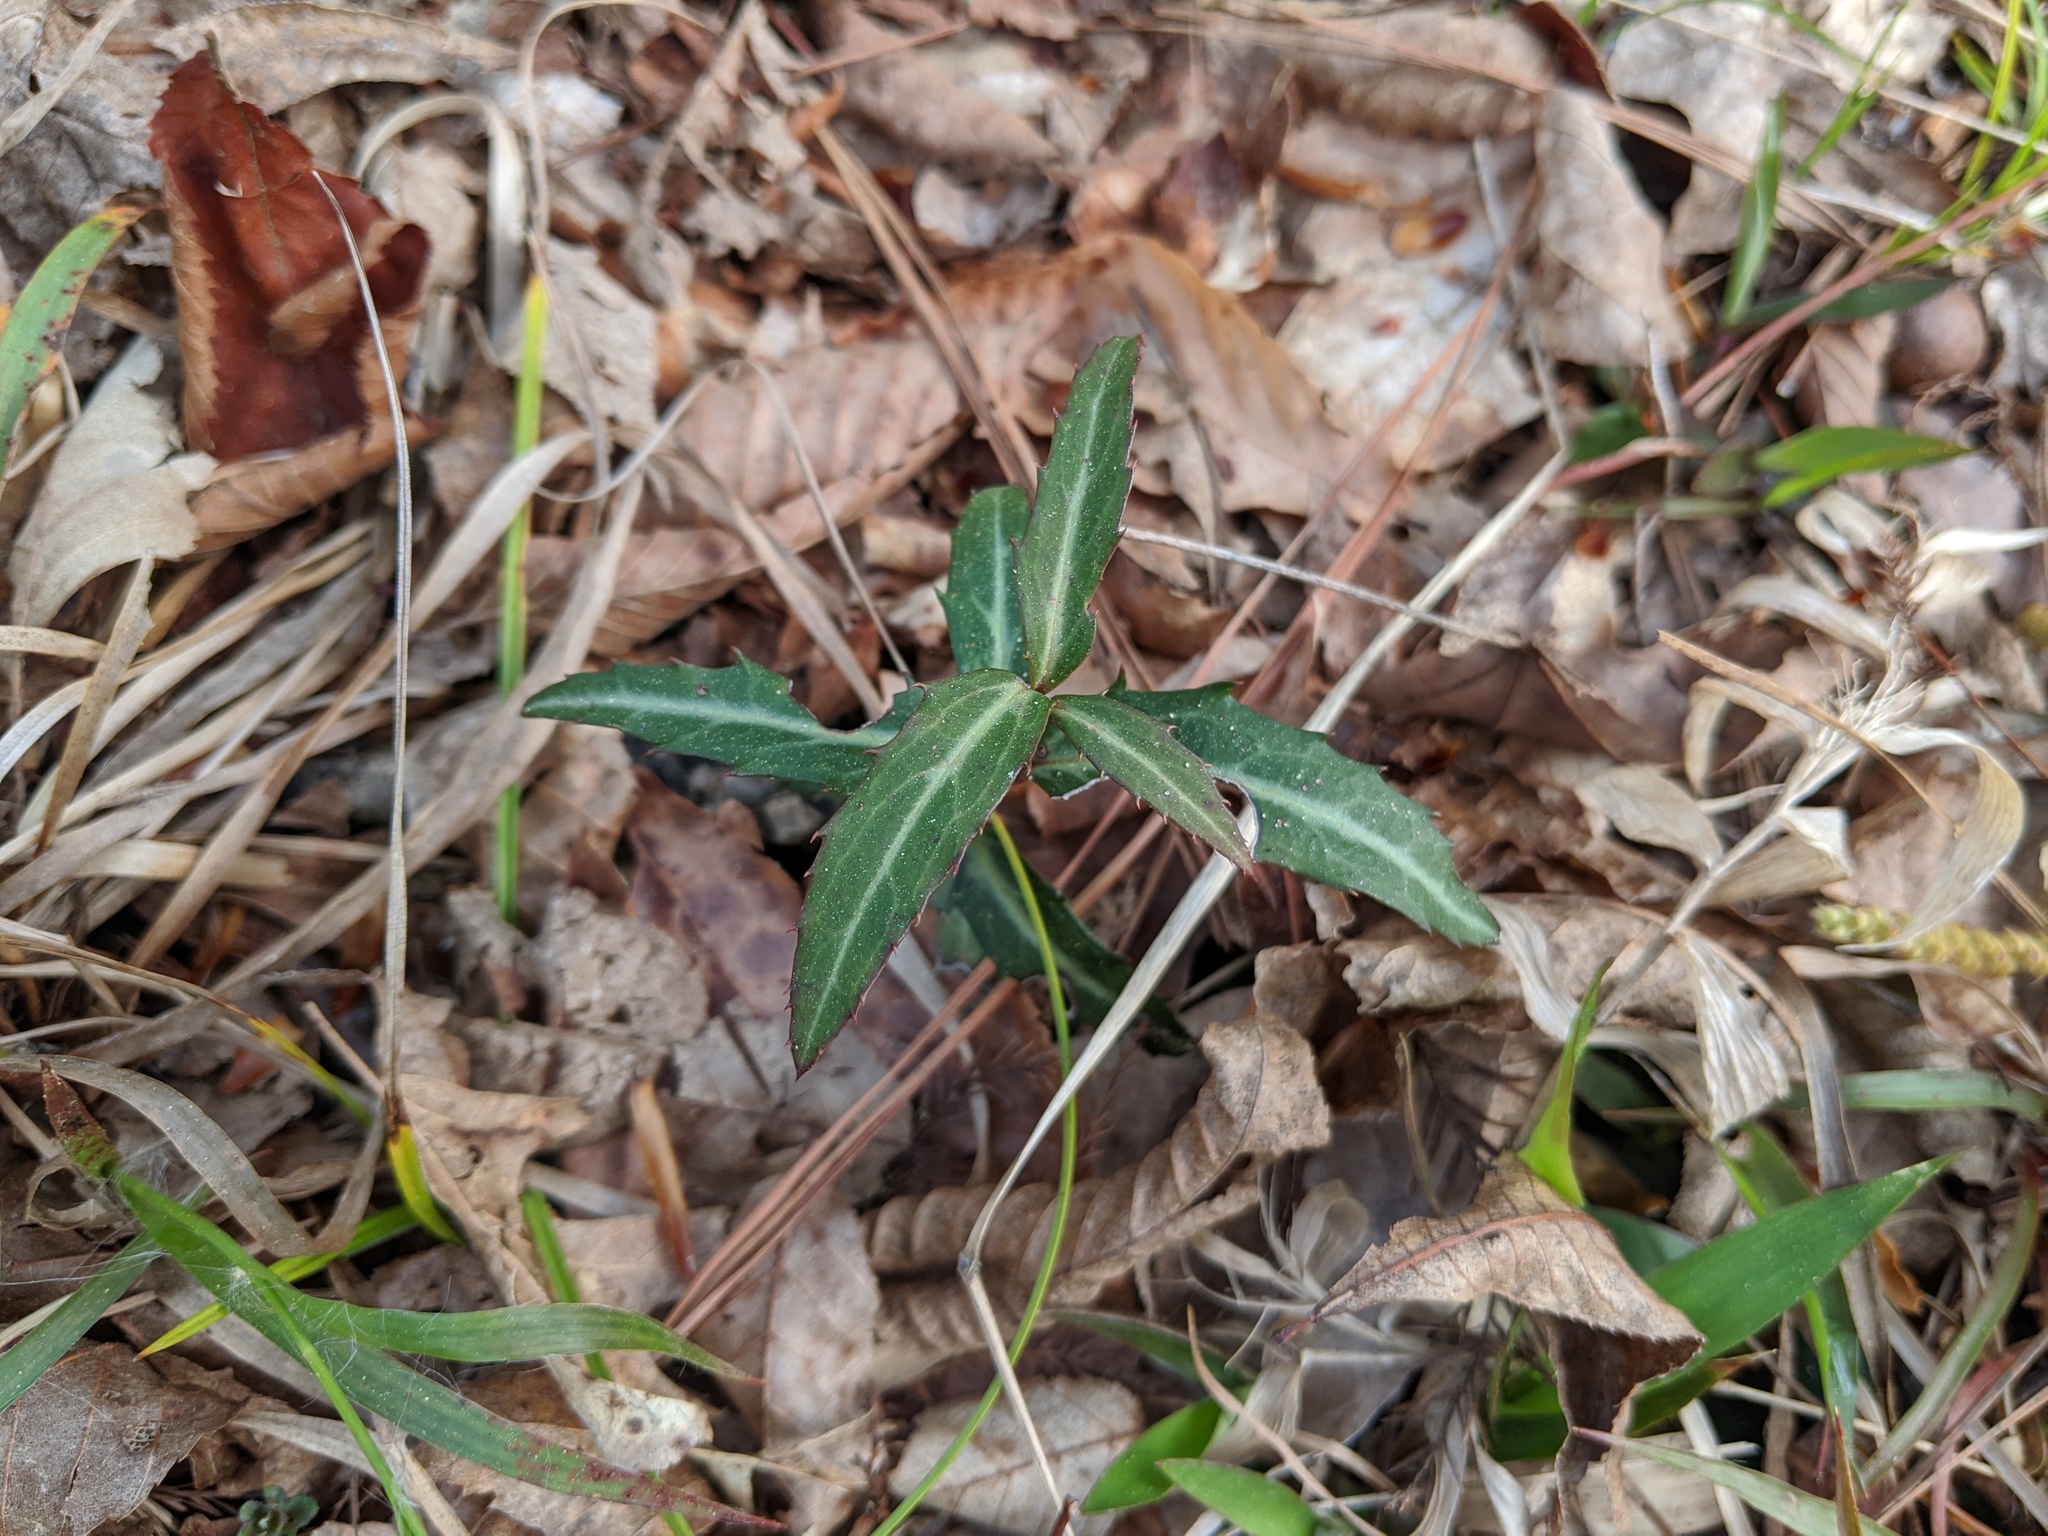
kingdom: Plantae
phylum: Tracheophyta
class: Magnoliopsida
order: Ericales
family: Ericaceae
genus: Chimaphila
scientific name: Chimaphila maculata
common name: Spotted pipsissewa
